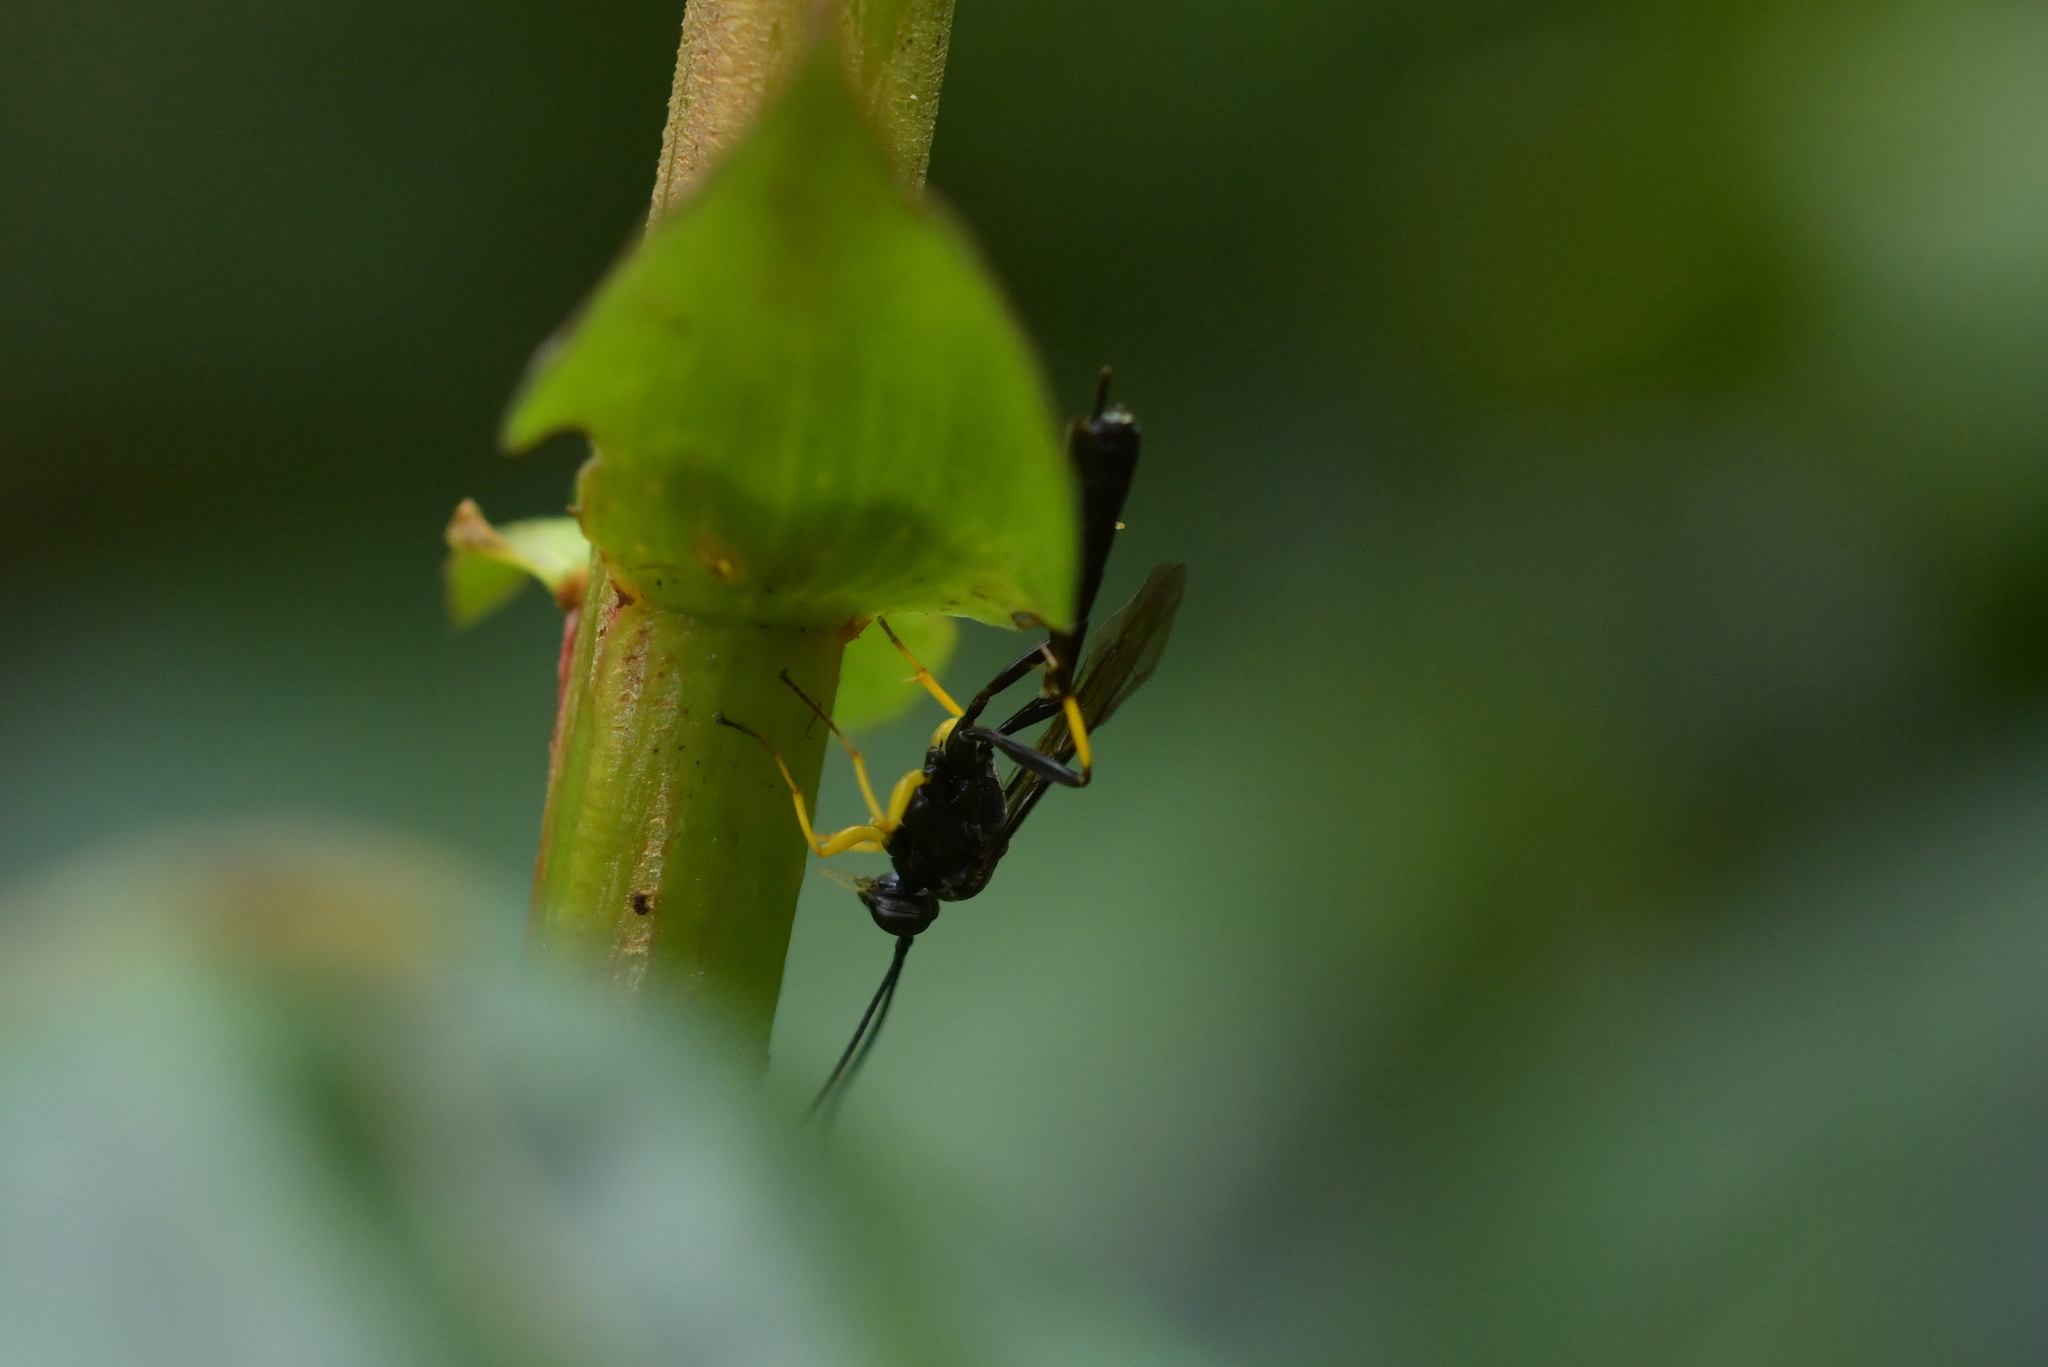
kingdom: Animalia
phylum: Arthropoda
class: Insecta
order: Hymenoptera
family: Ichneumonidae
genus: Dusona
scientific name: Dusona stramineipes
